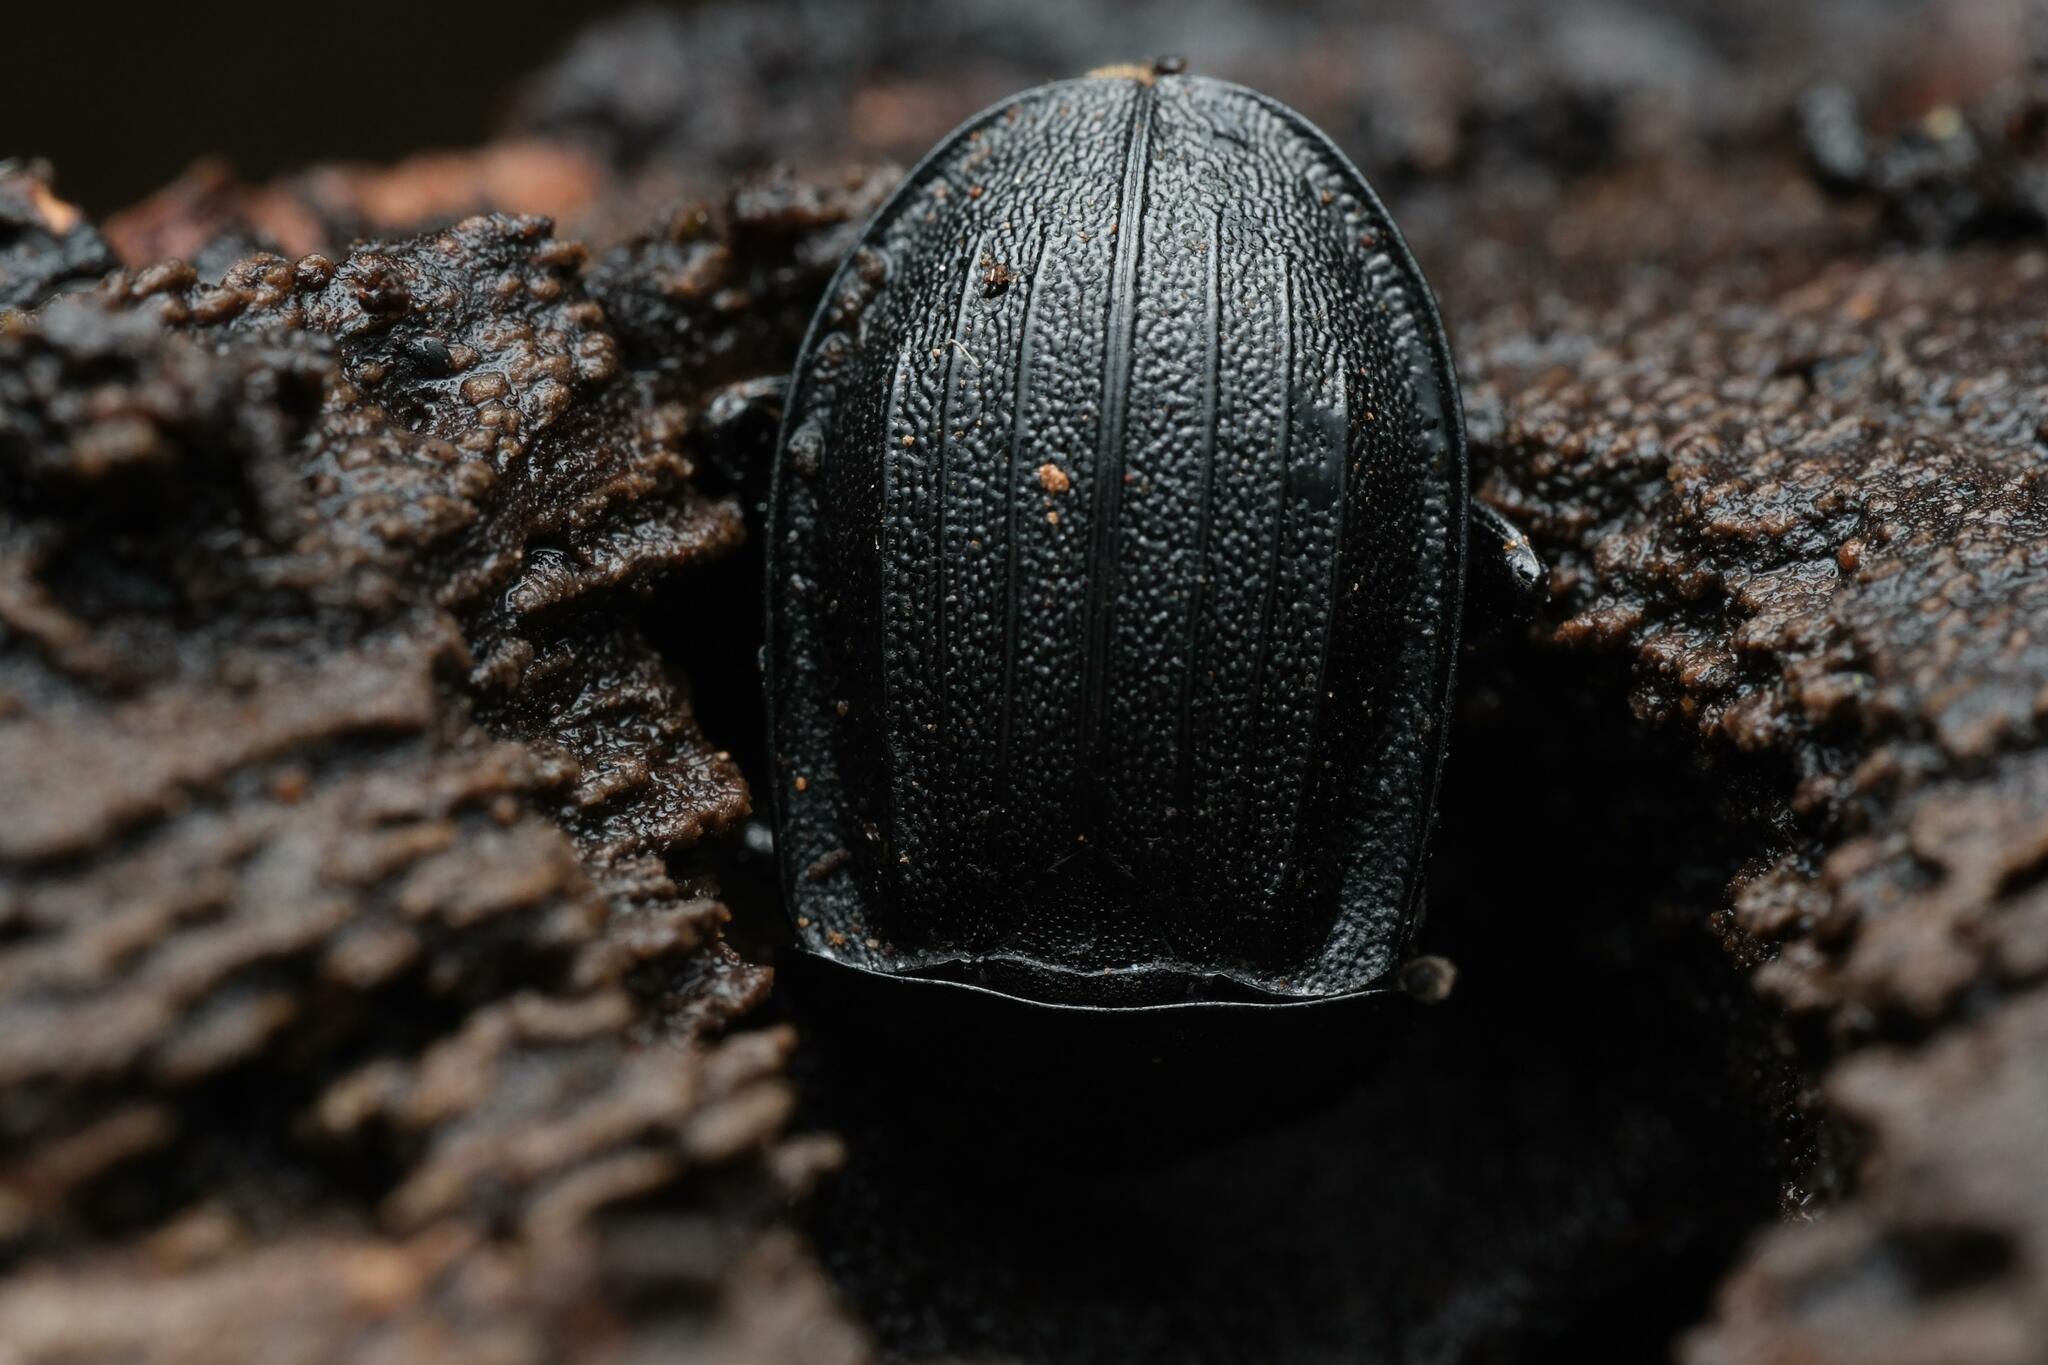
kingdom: Animalia
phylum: Arthropoda
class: Insecta
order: Coleoptera
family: Staphylinidae
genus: Silpha
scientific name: Silpha atrata
